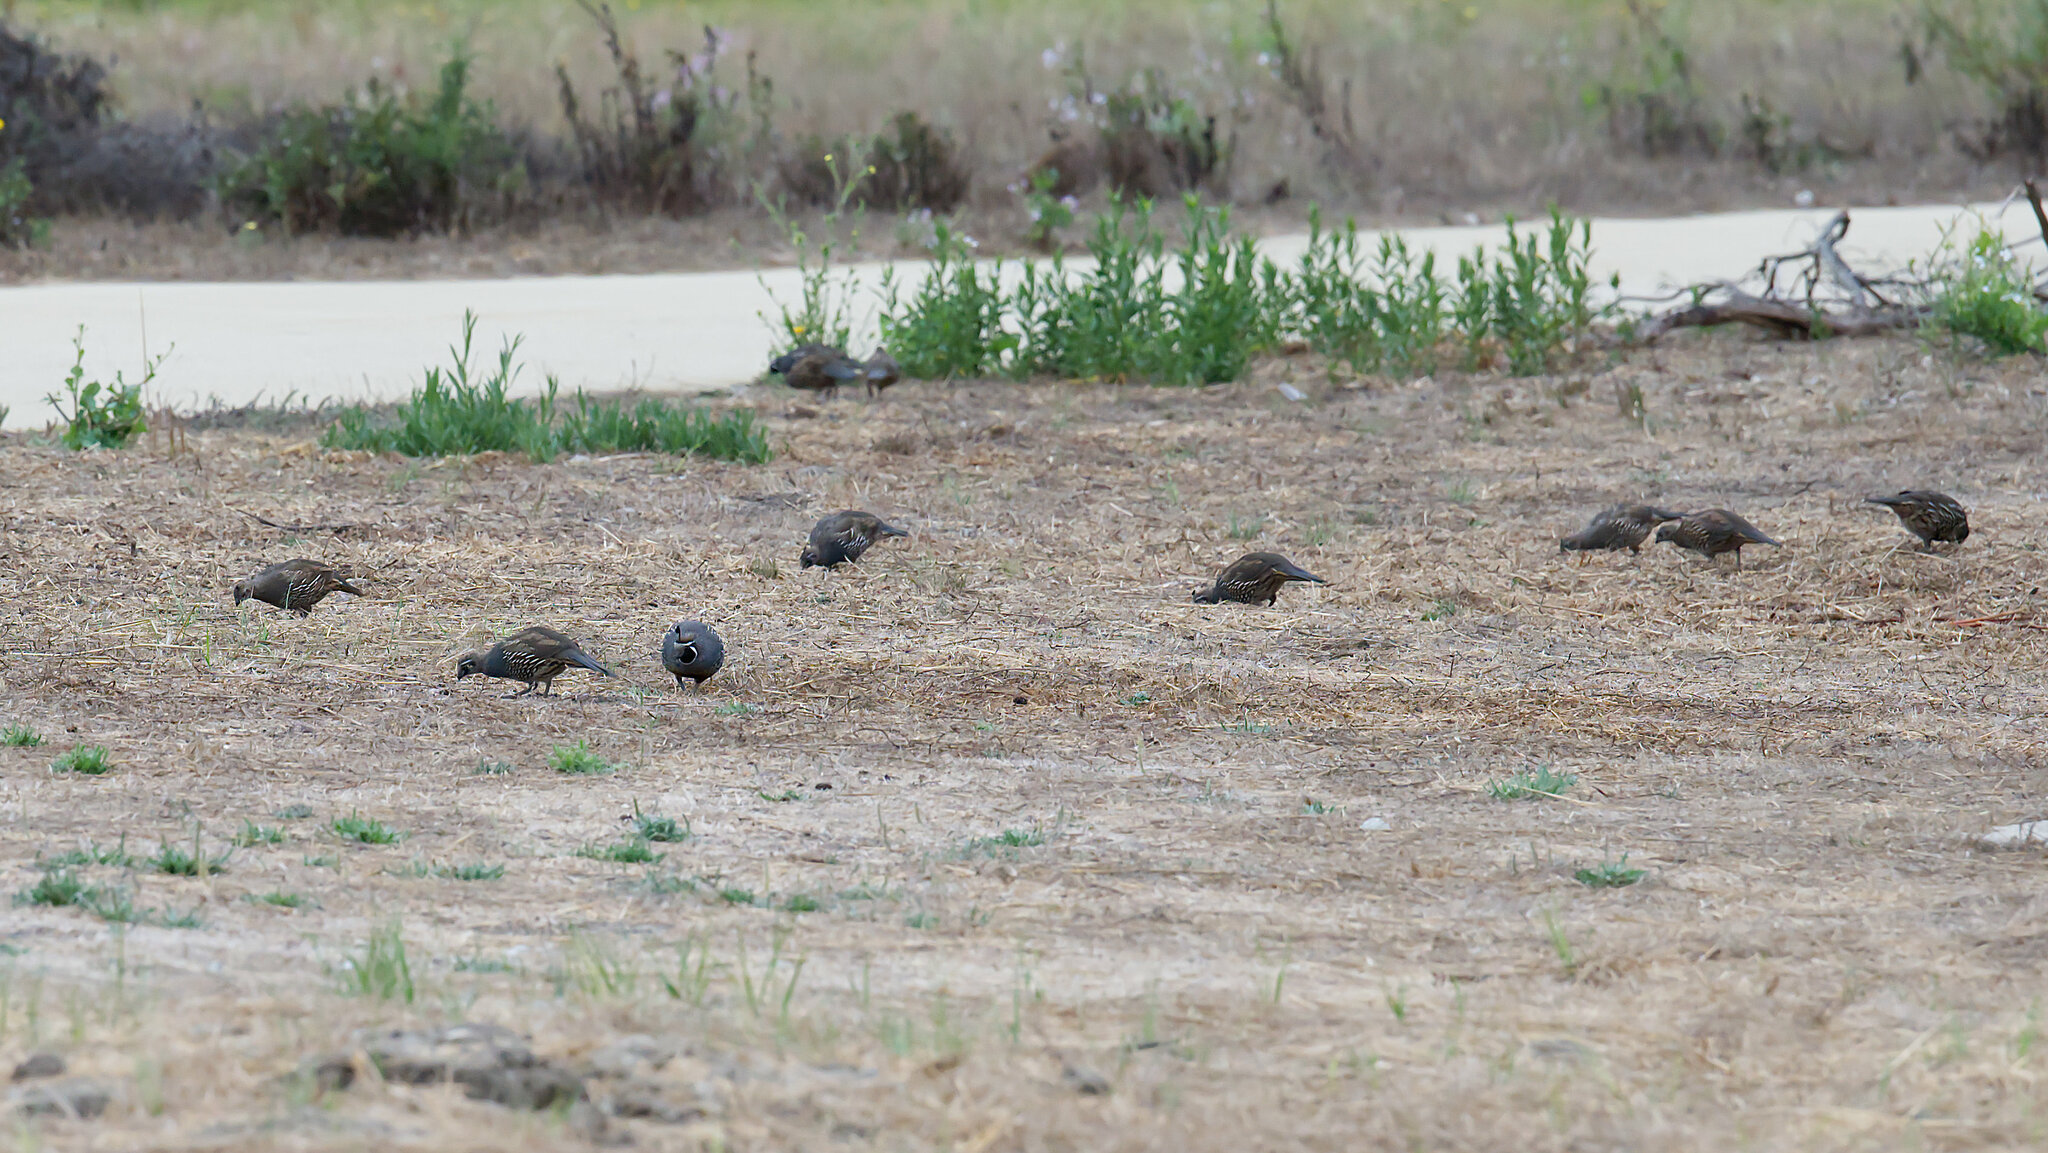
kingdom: Animalia
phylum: Chordata
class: Aves
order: Galliformes
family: Odontophoridae
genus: Callipepla
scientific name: Callipepla californica
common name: California quail
